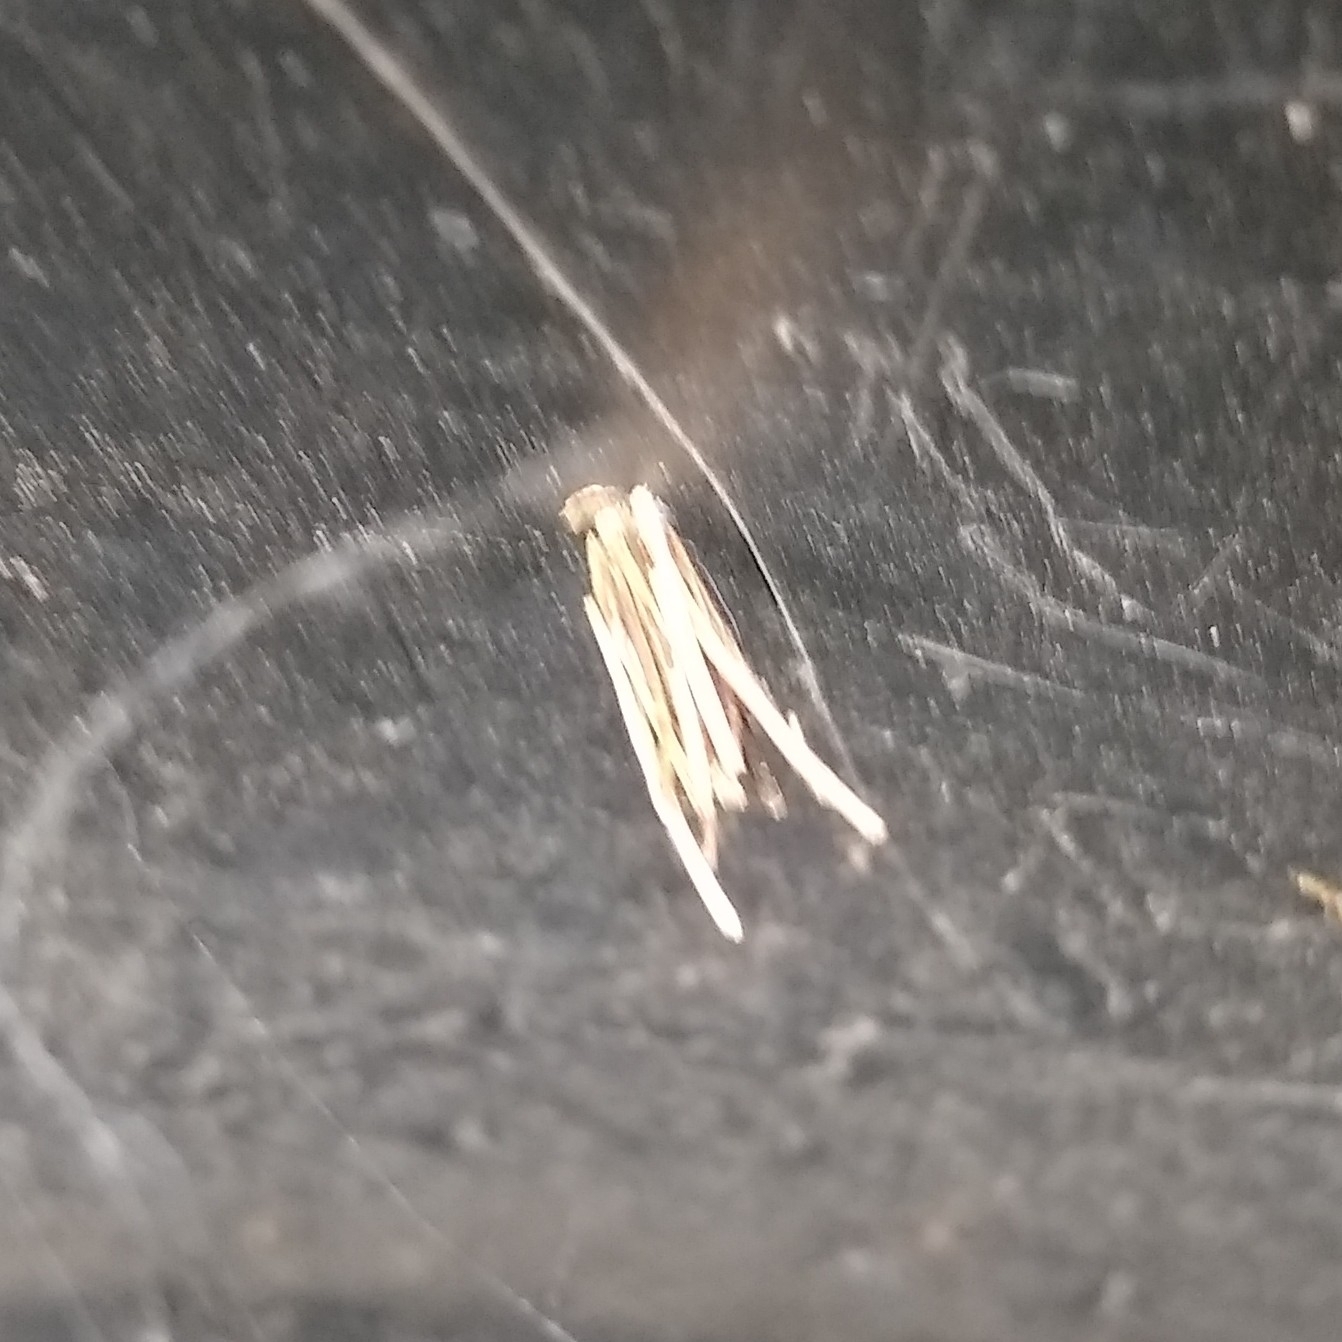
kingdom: Animalia
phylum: Arthropoda
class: Insecta
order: Lepidoptera
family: Psychidae
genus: Psyche
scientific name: Psyche casta
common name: Common sweep
